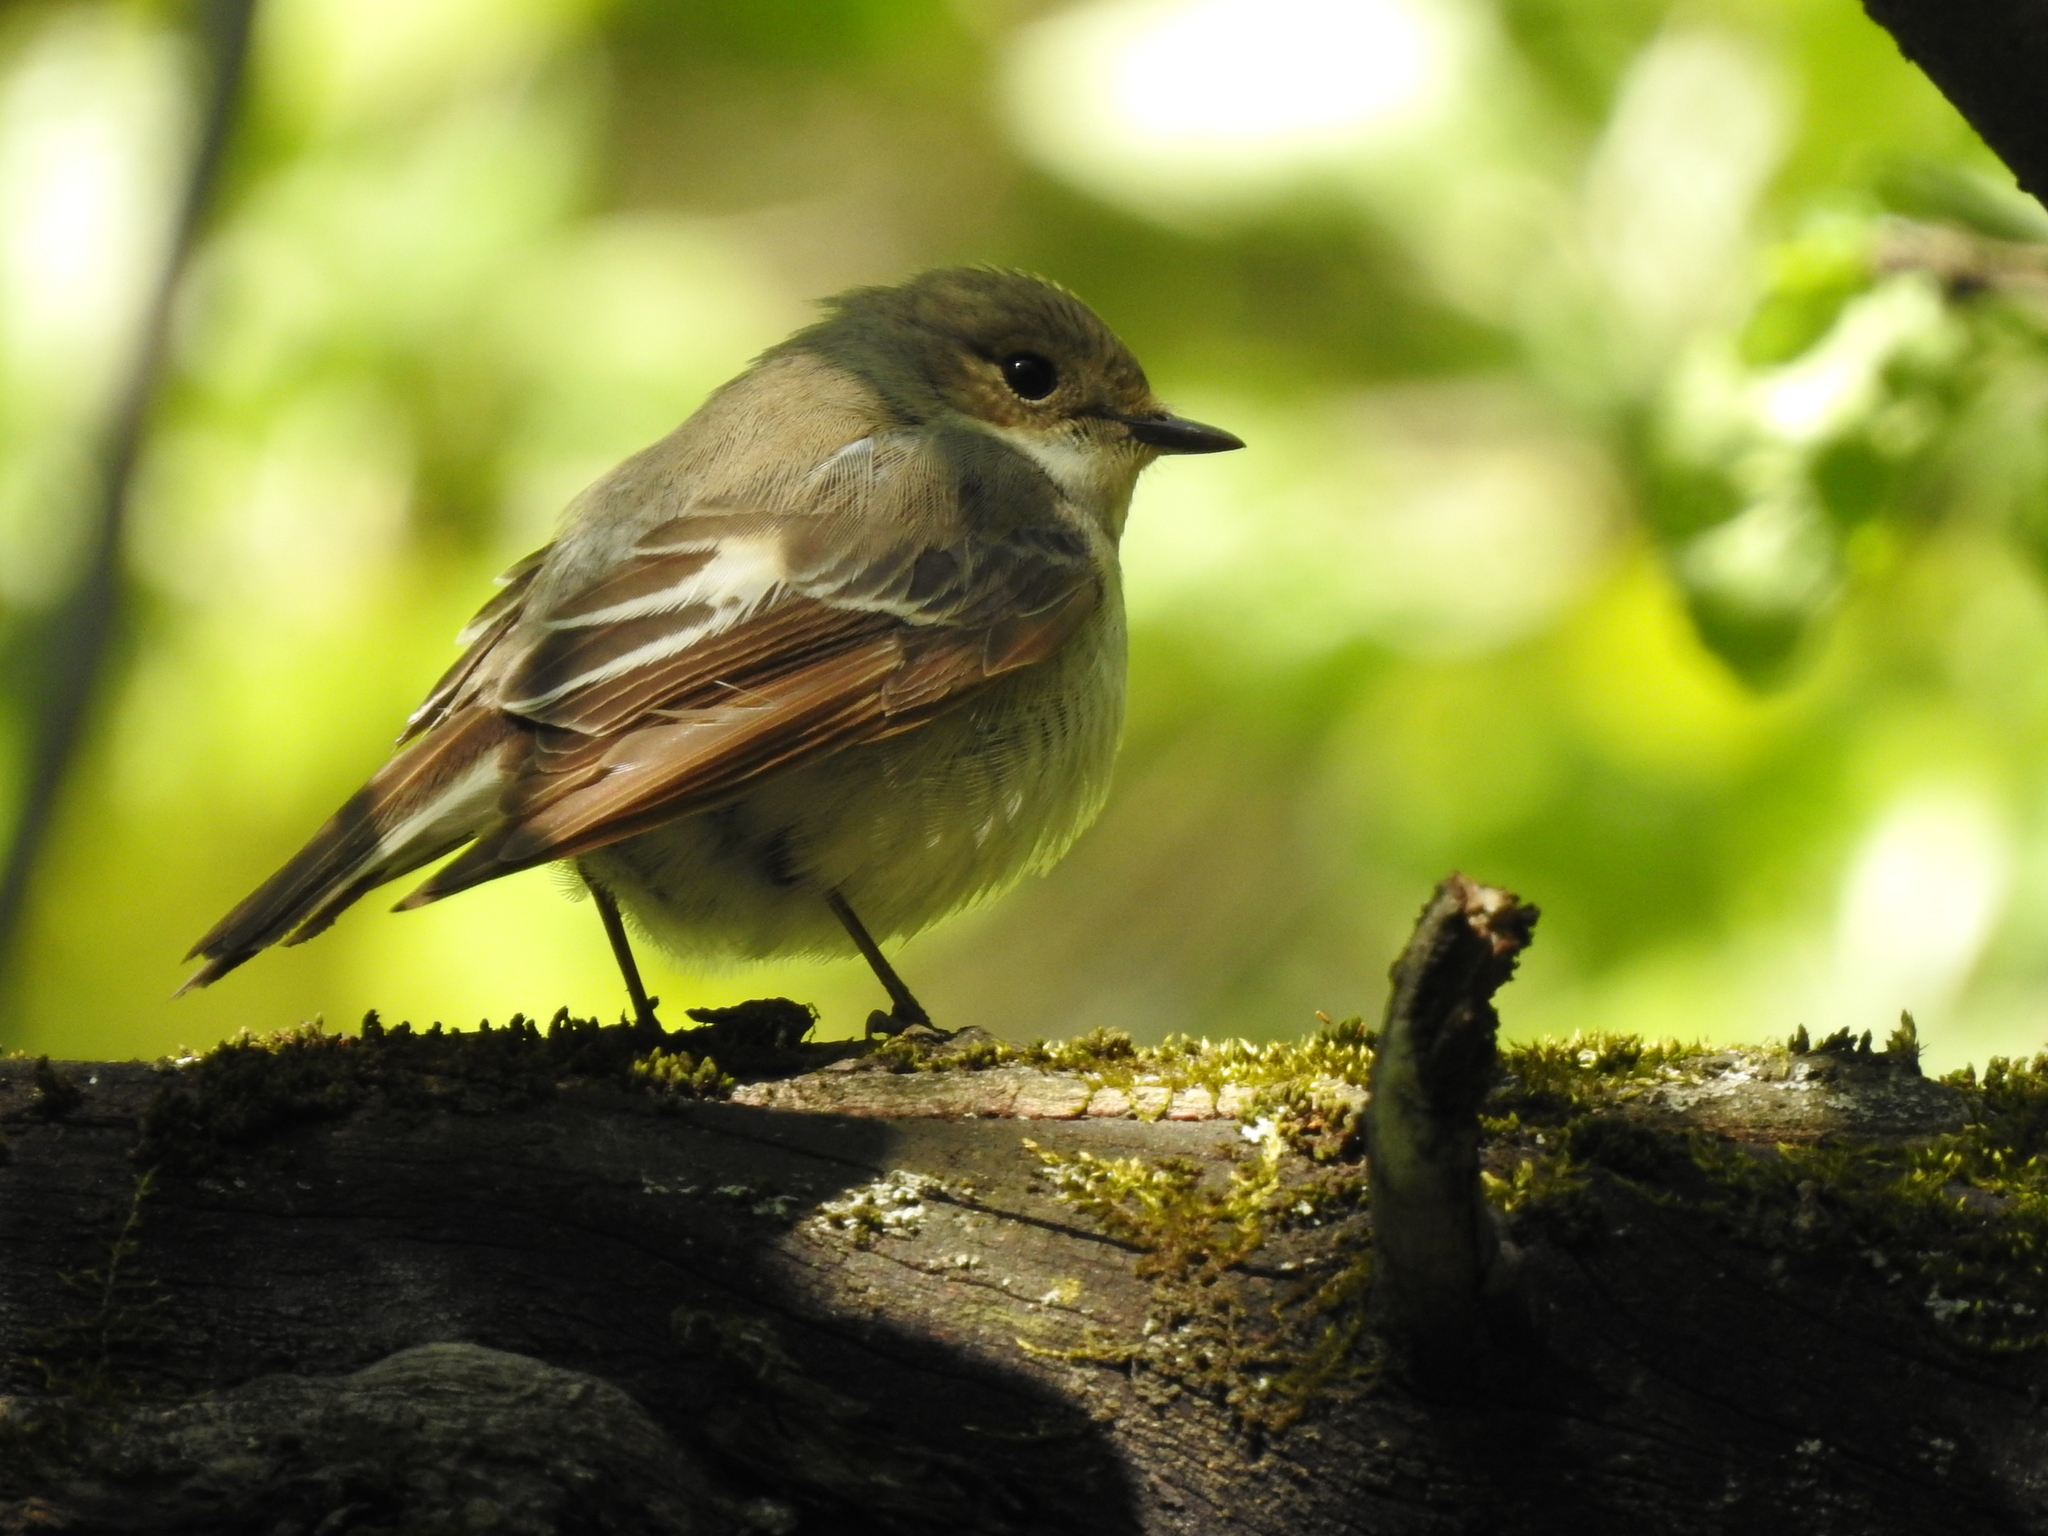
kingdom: Animalia
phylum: Chordata
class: Aves
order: Passeriformes
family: Muscicapidae
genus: Ficedula
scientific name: Ficedula hypoleuca
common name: European pied flycatcher
